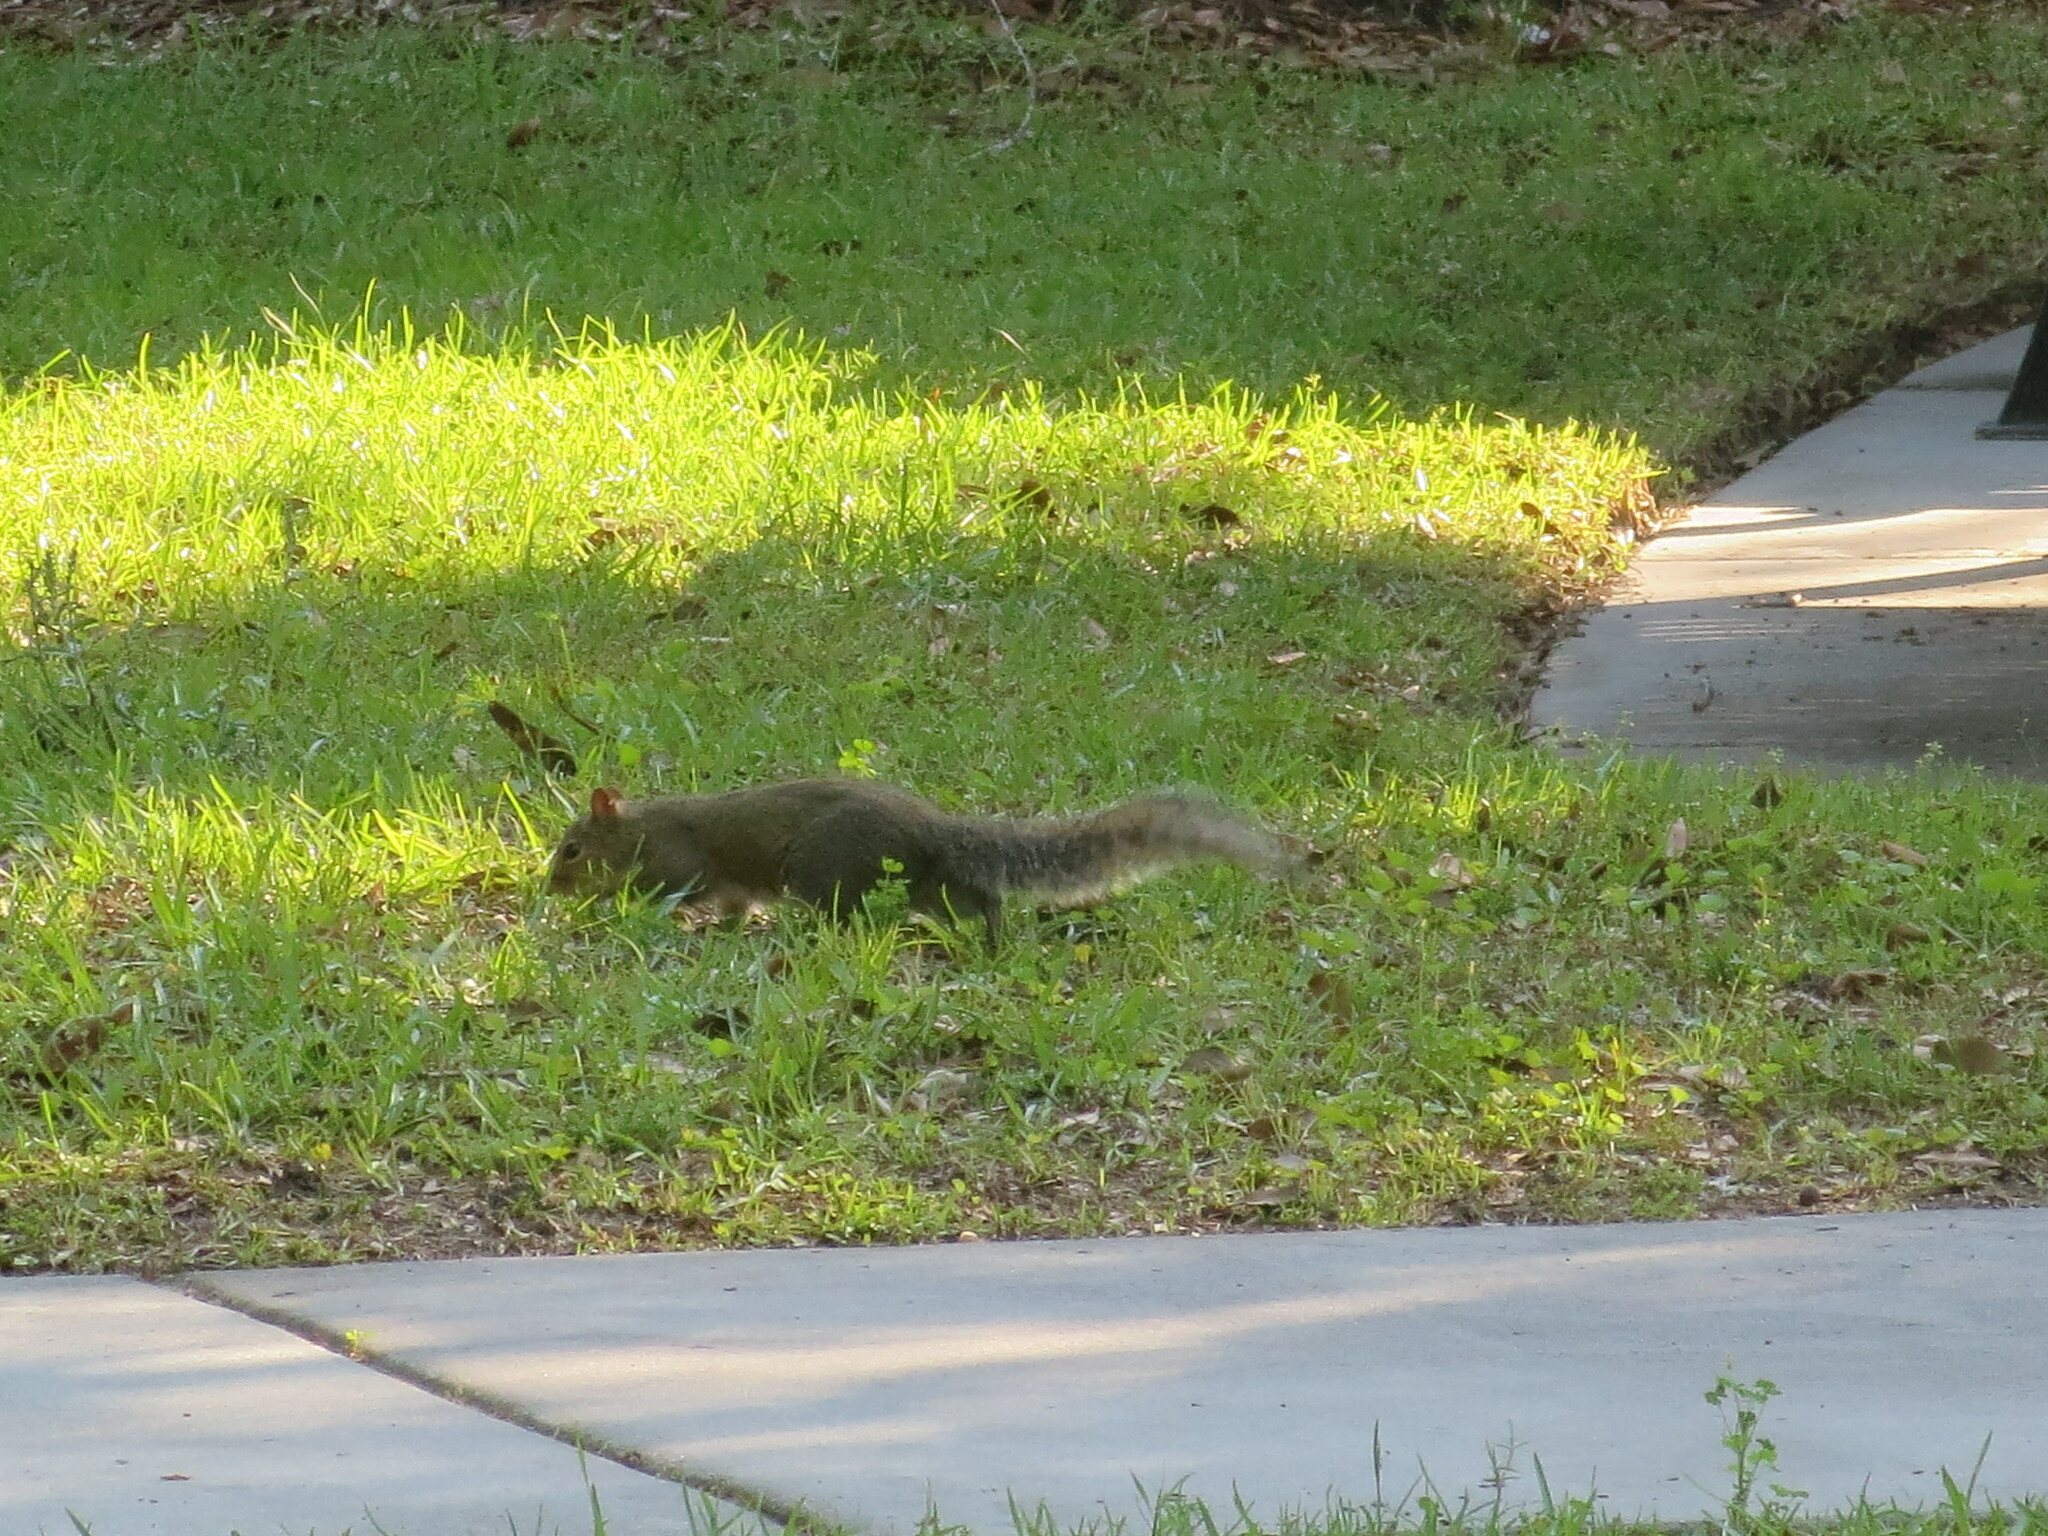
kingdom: Animalia
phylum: Chordata
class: Mammalia
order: Rodentia
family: Sciuridae
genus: Sciurus
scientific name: Sciurus carolinensis
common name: Eastern gray squirrel
